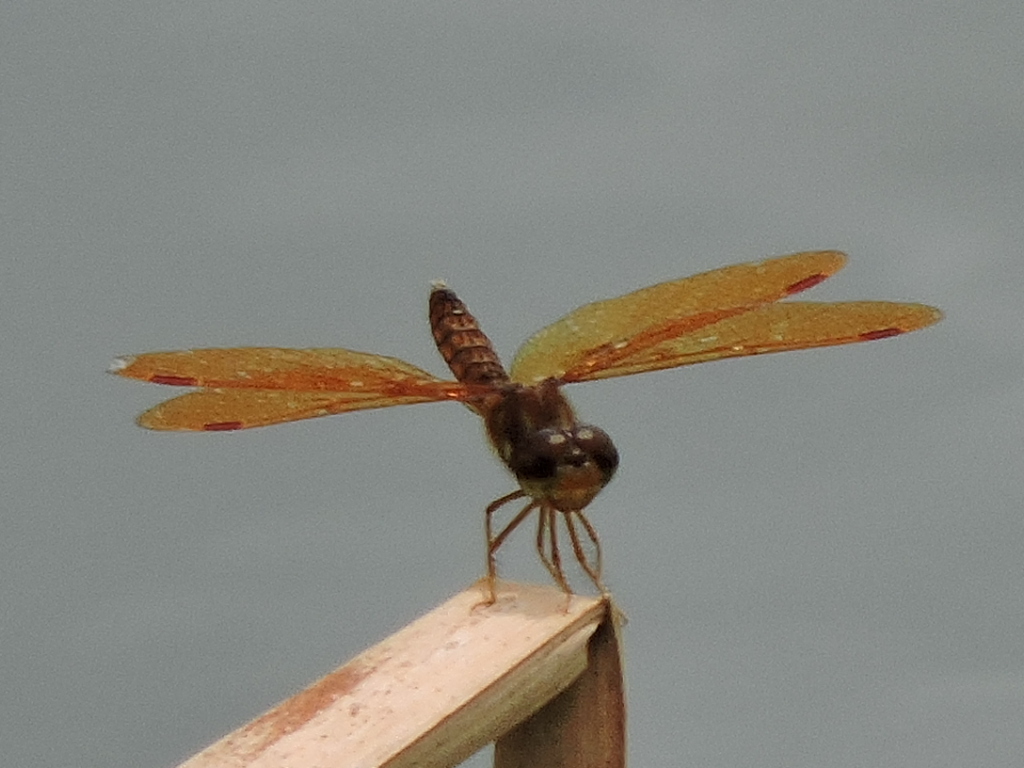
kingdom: Animalia
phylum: Arthropoda
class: Insecta
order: Odonata
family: Libellulidae
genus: Perithemis
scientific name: Perithemis tenera
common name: Eastern amberwing
